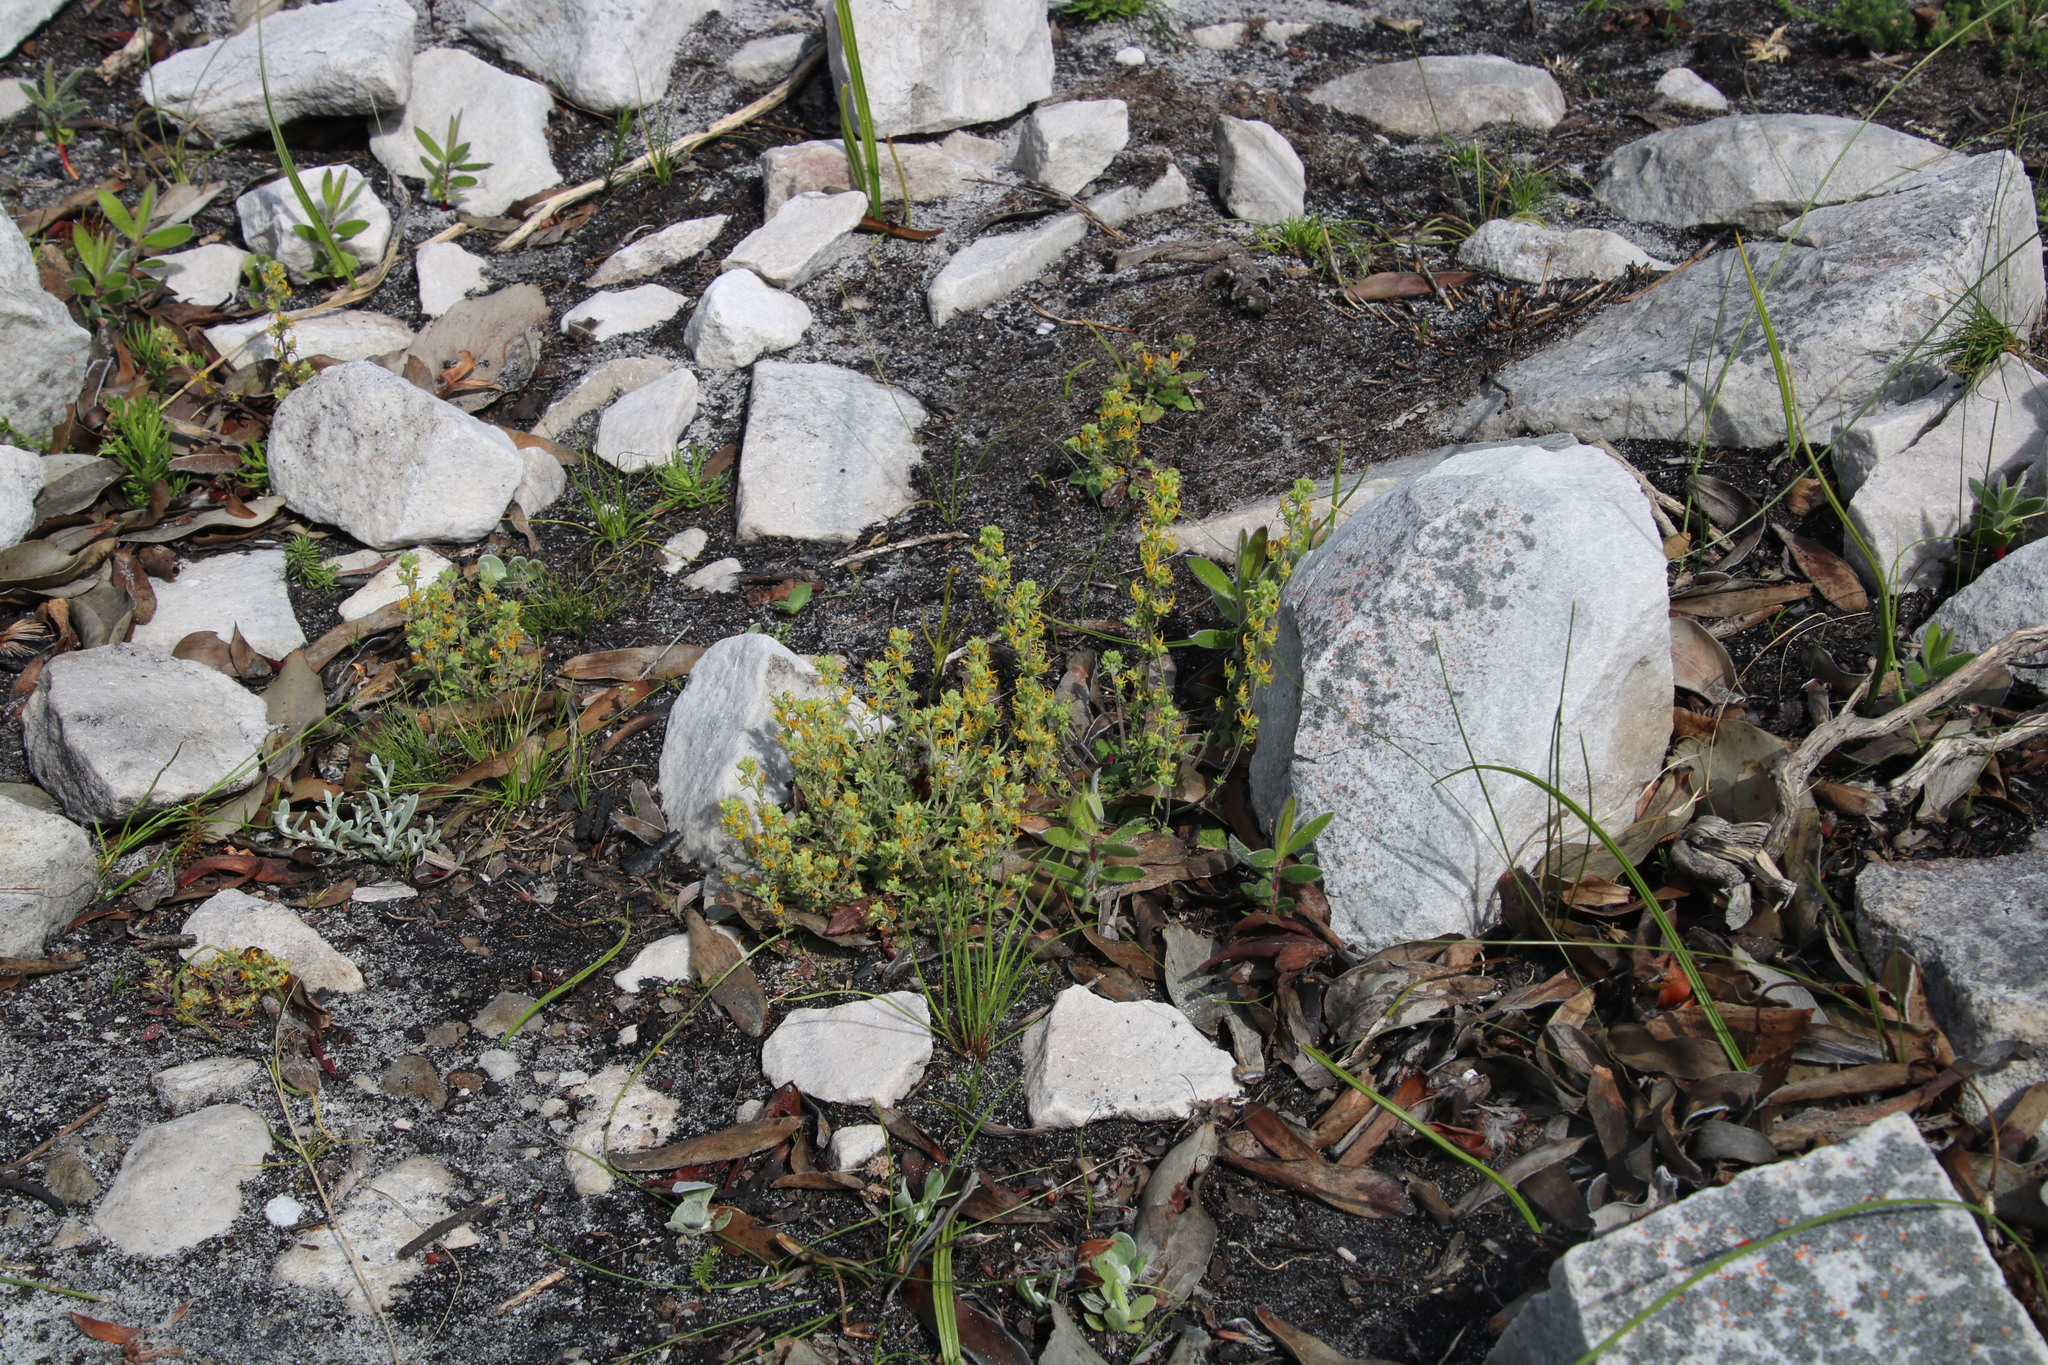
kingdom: Plantae
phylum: Tracheophyta
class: Magnoliopsida
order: Lamiales
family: Scrophulariaceae
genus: Manulea
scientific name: Manulea cheiranthus
